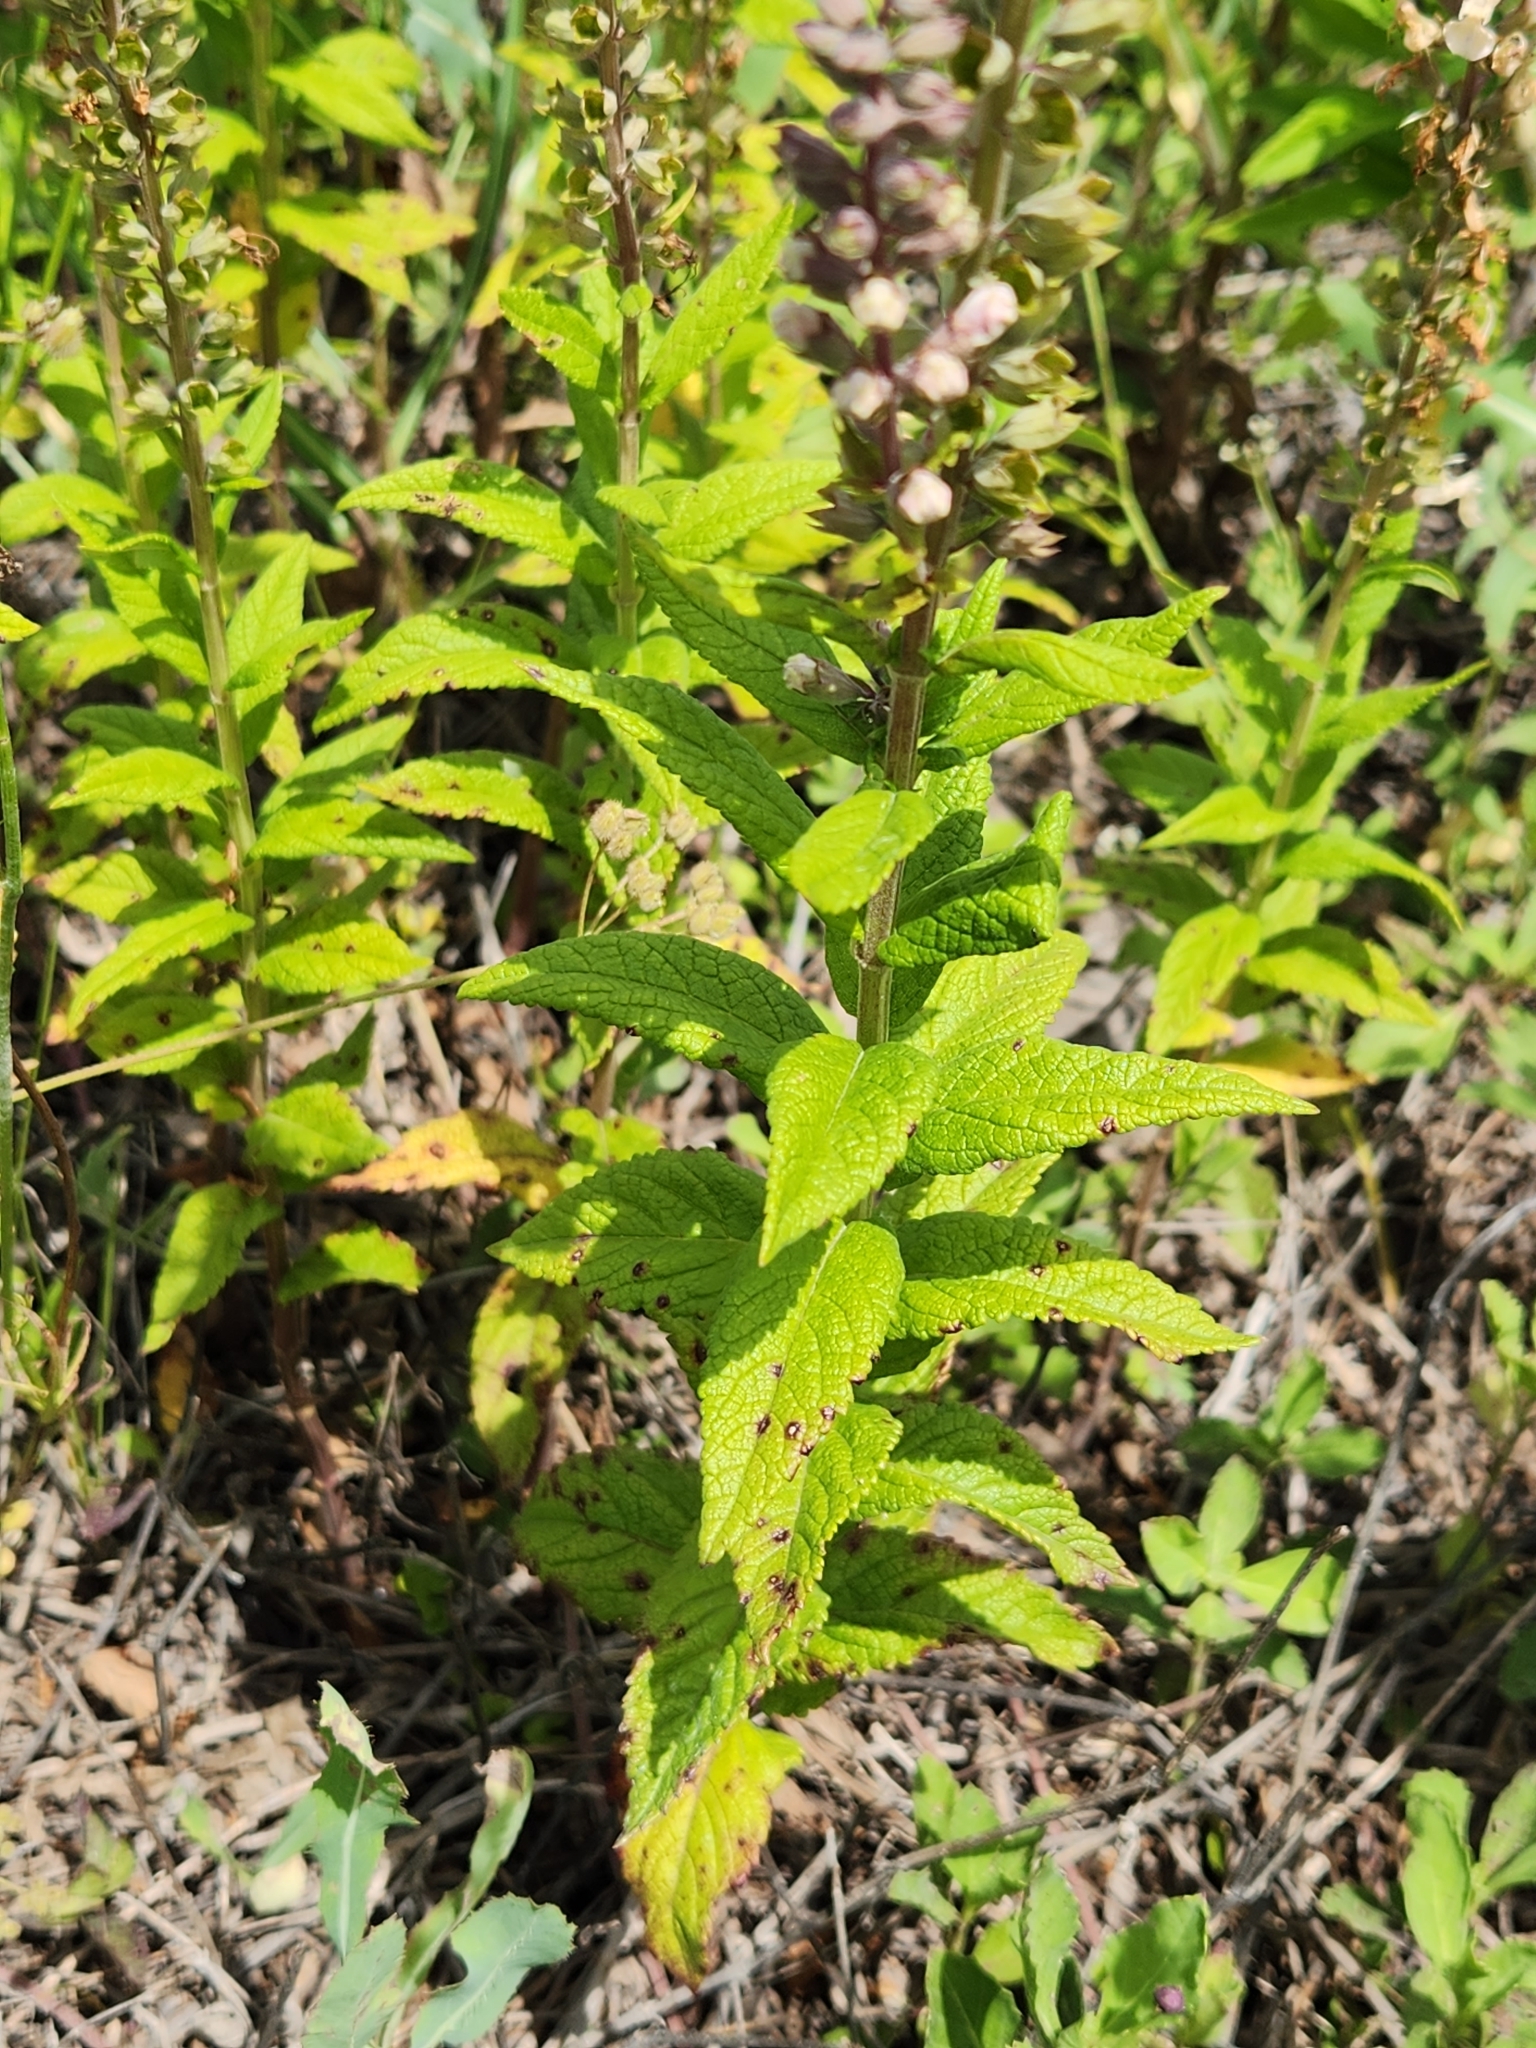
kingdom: Plantae
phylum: Tracheophyta
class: Magnoliopsida
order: Lamiales
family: Lamiaceae
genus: Teucrium
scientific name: Teucrium canadense
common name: American germander
